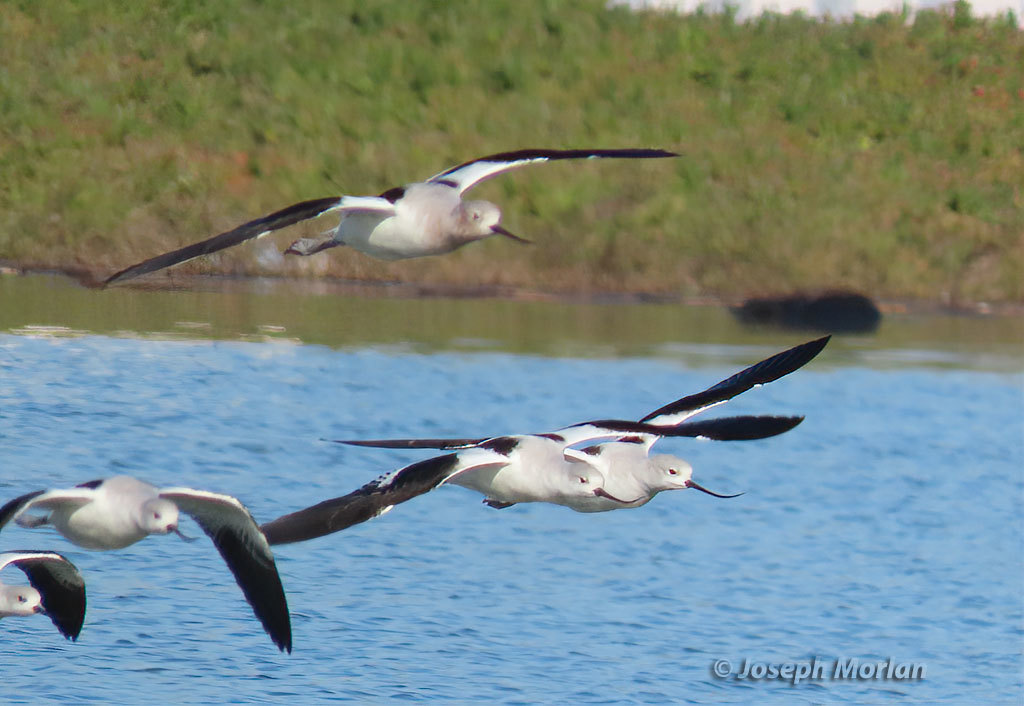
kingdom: Animalia
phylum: Chordata
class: Aves
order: Charadriiformes
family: Recurvirostridae
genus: Recurvirostra
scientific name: Recurvirostra americana
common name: American avocet
